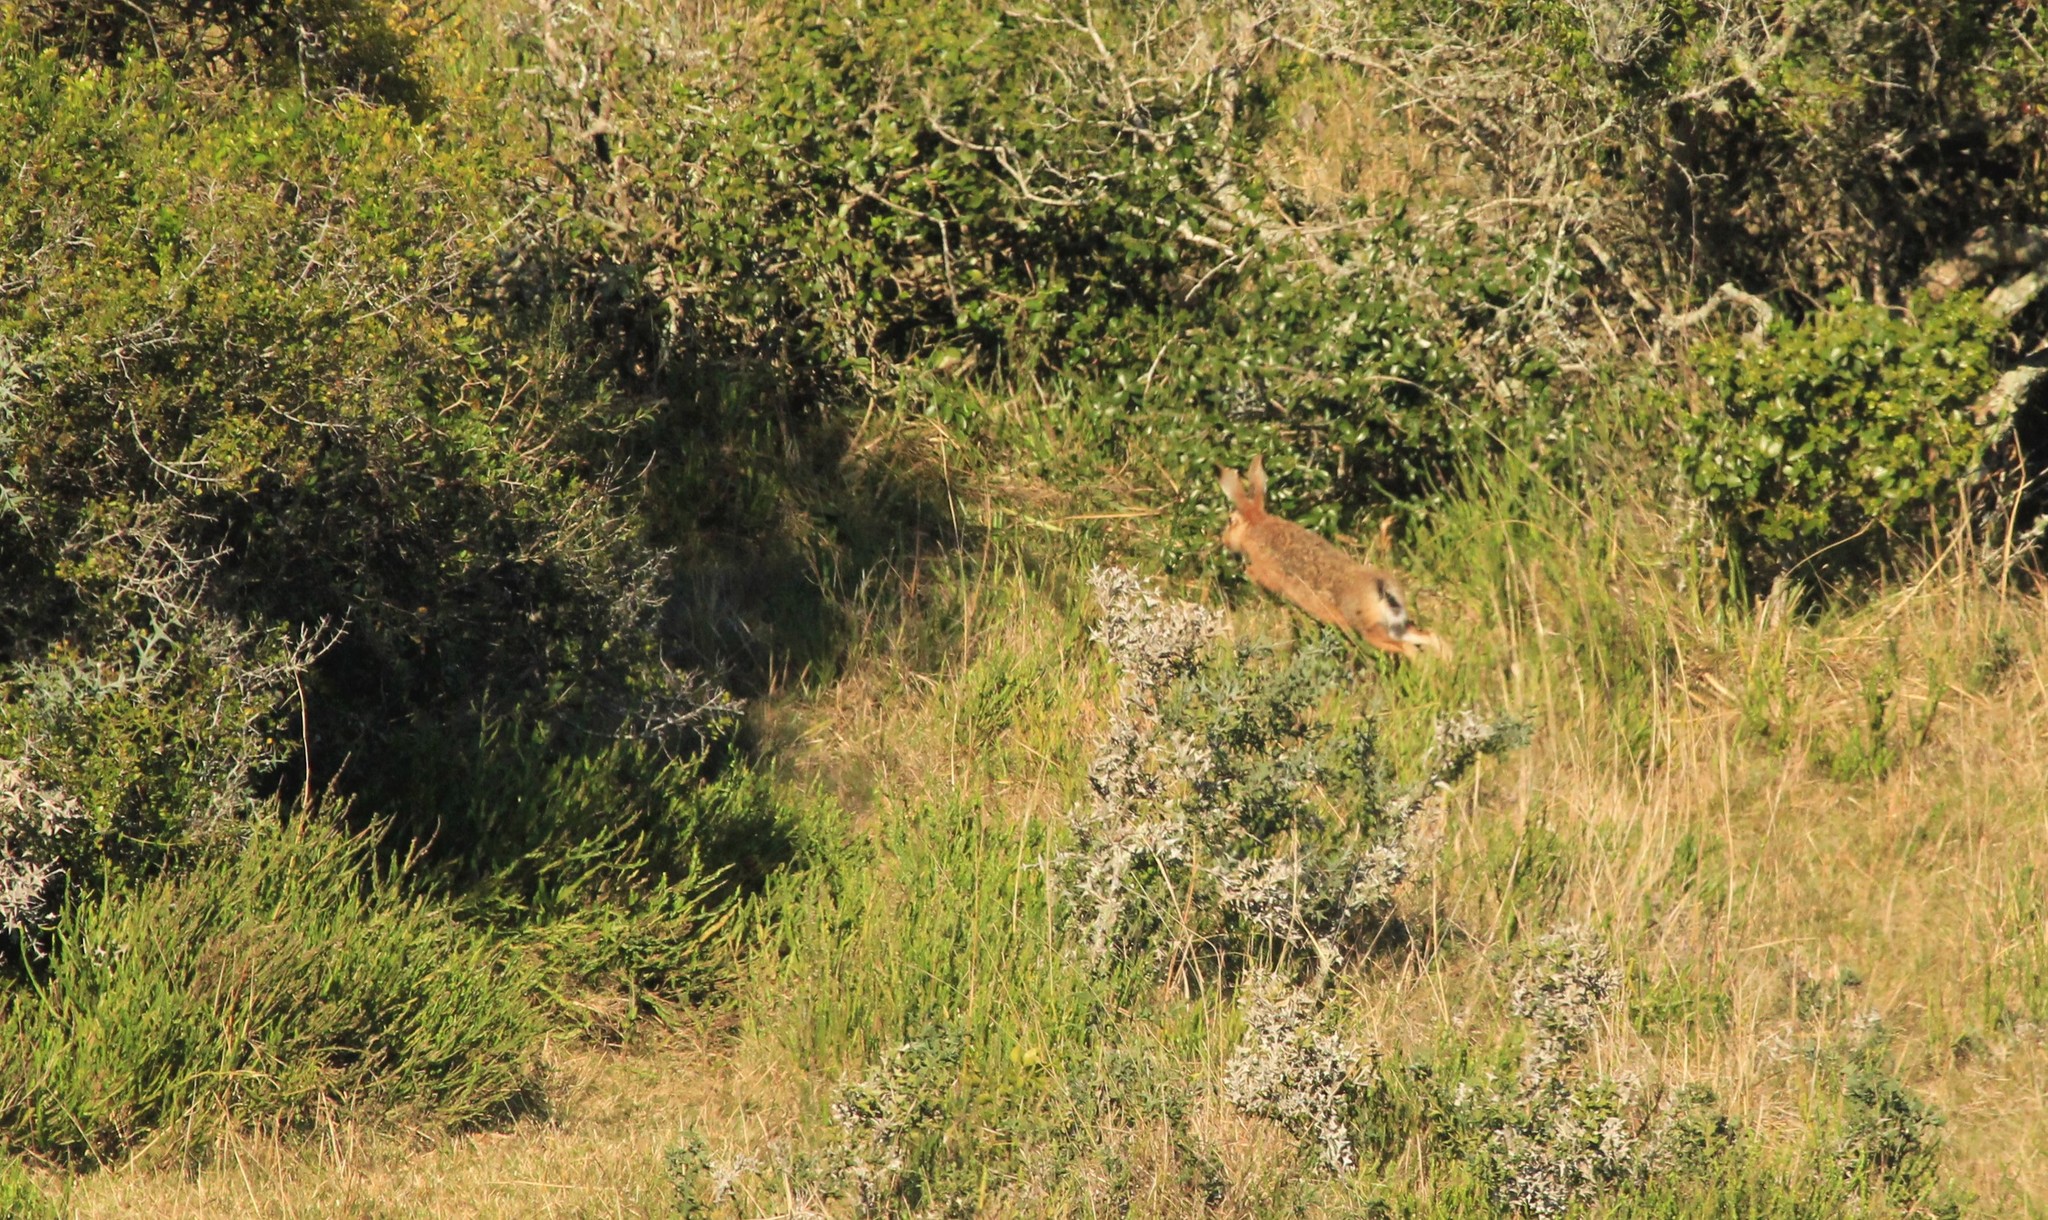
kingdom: Animalia
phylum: Chordata
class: Mammalia
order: Lagomorpha
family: Leporidae
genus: Lepus
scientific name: Lepus europaeus
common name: European hare
